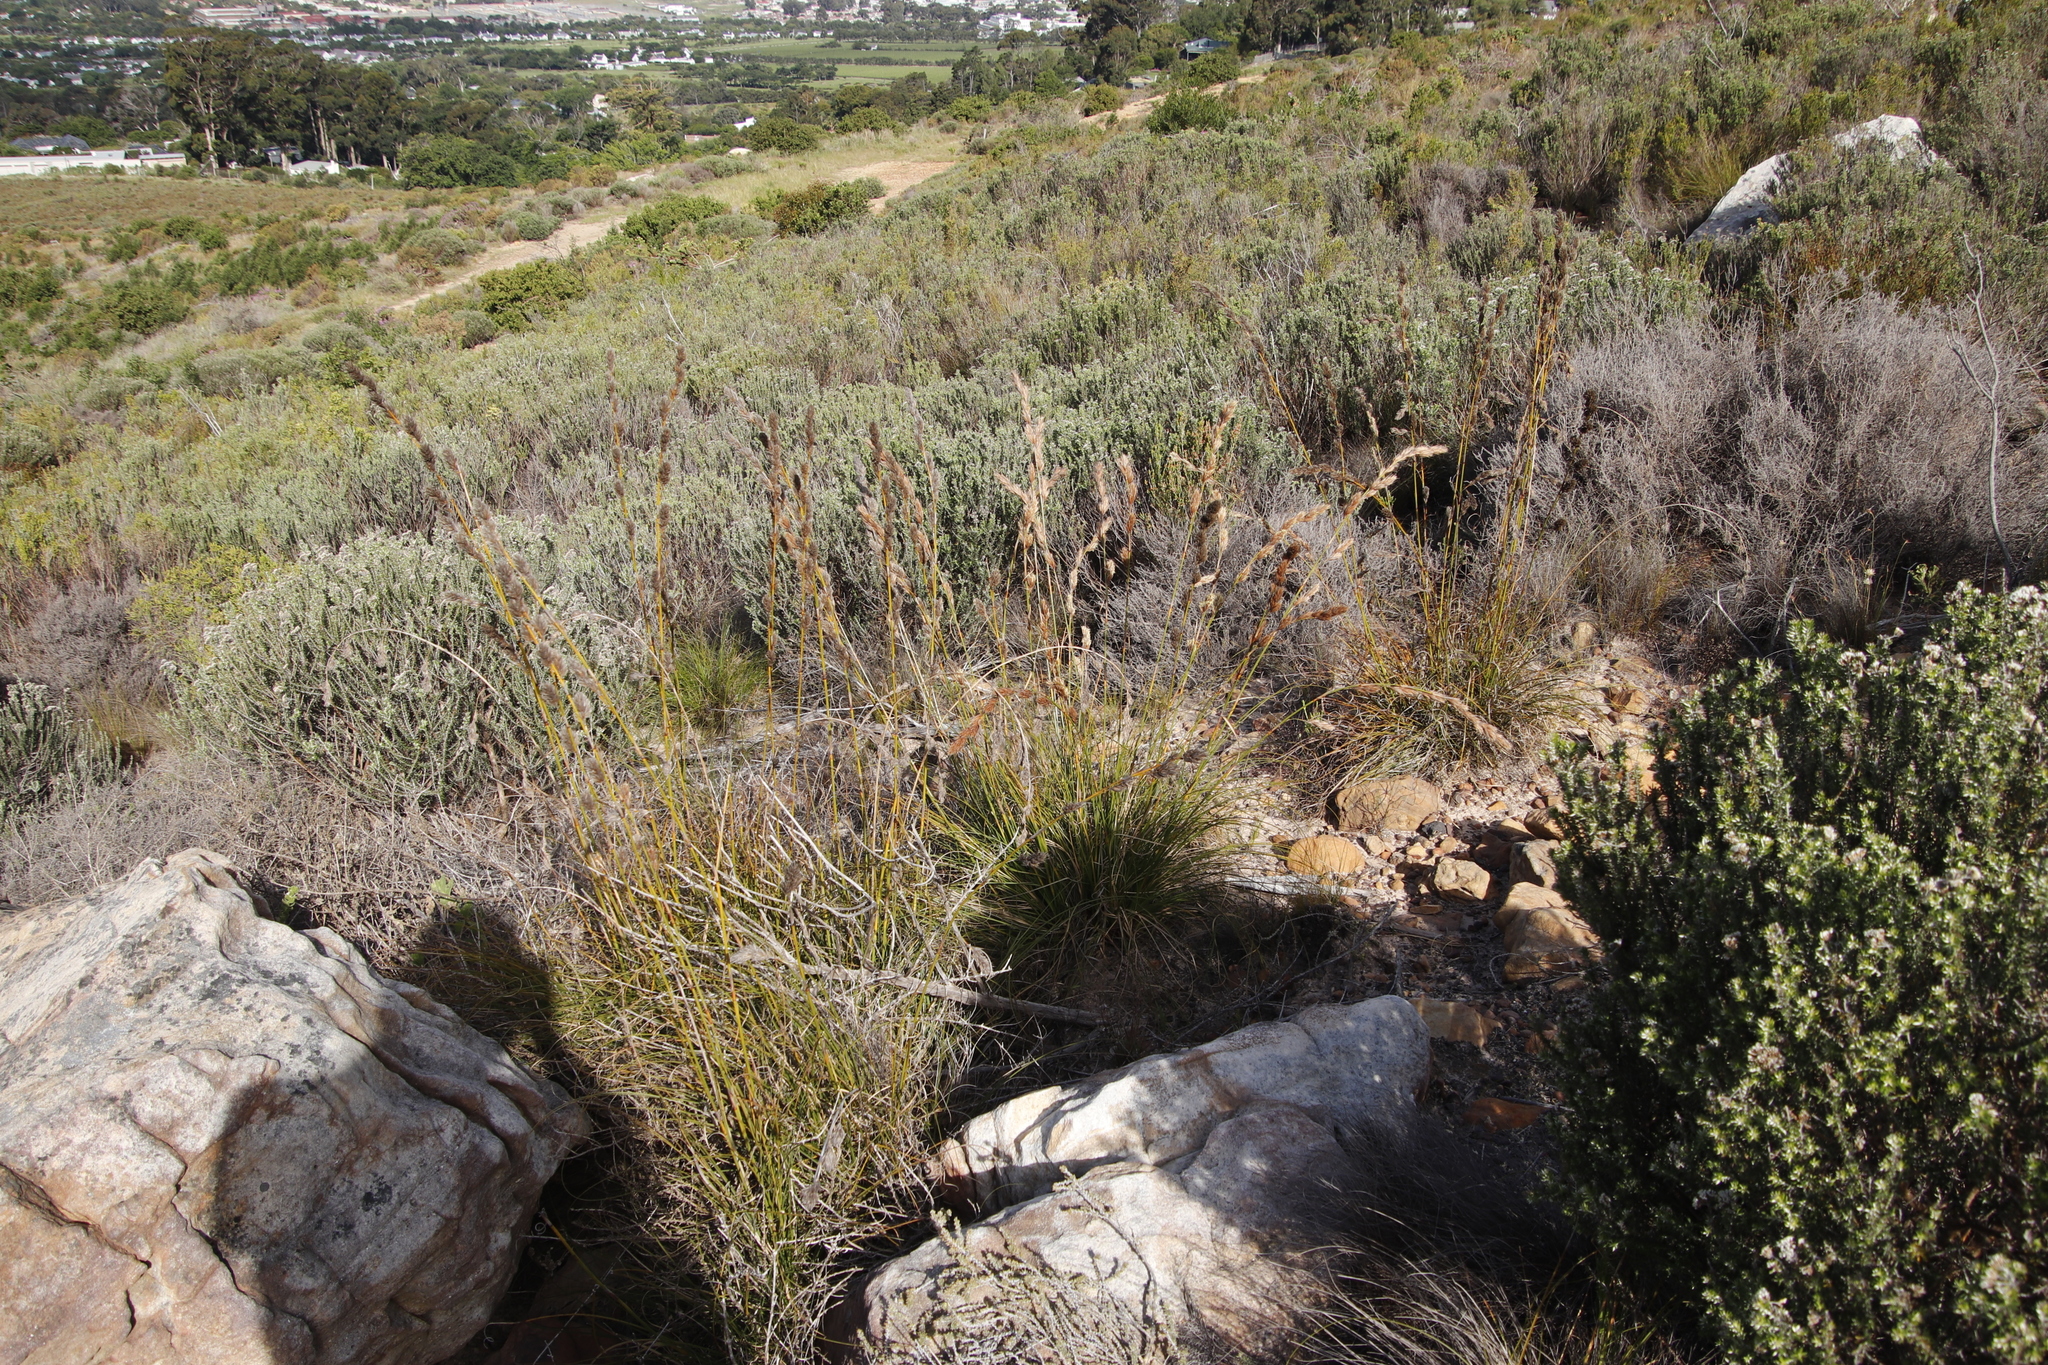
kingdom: Plantae
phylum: Tracheophyta
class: Liliopsida
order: Poales
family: Cyperaceae
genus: Tetraria
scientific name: Tetraria bromoides
